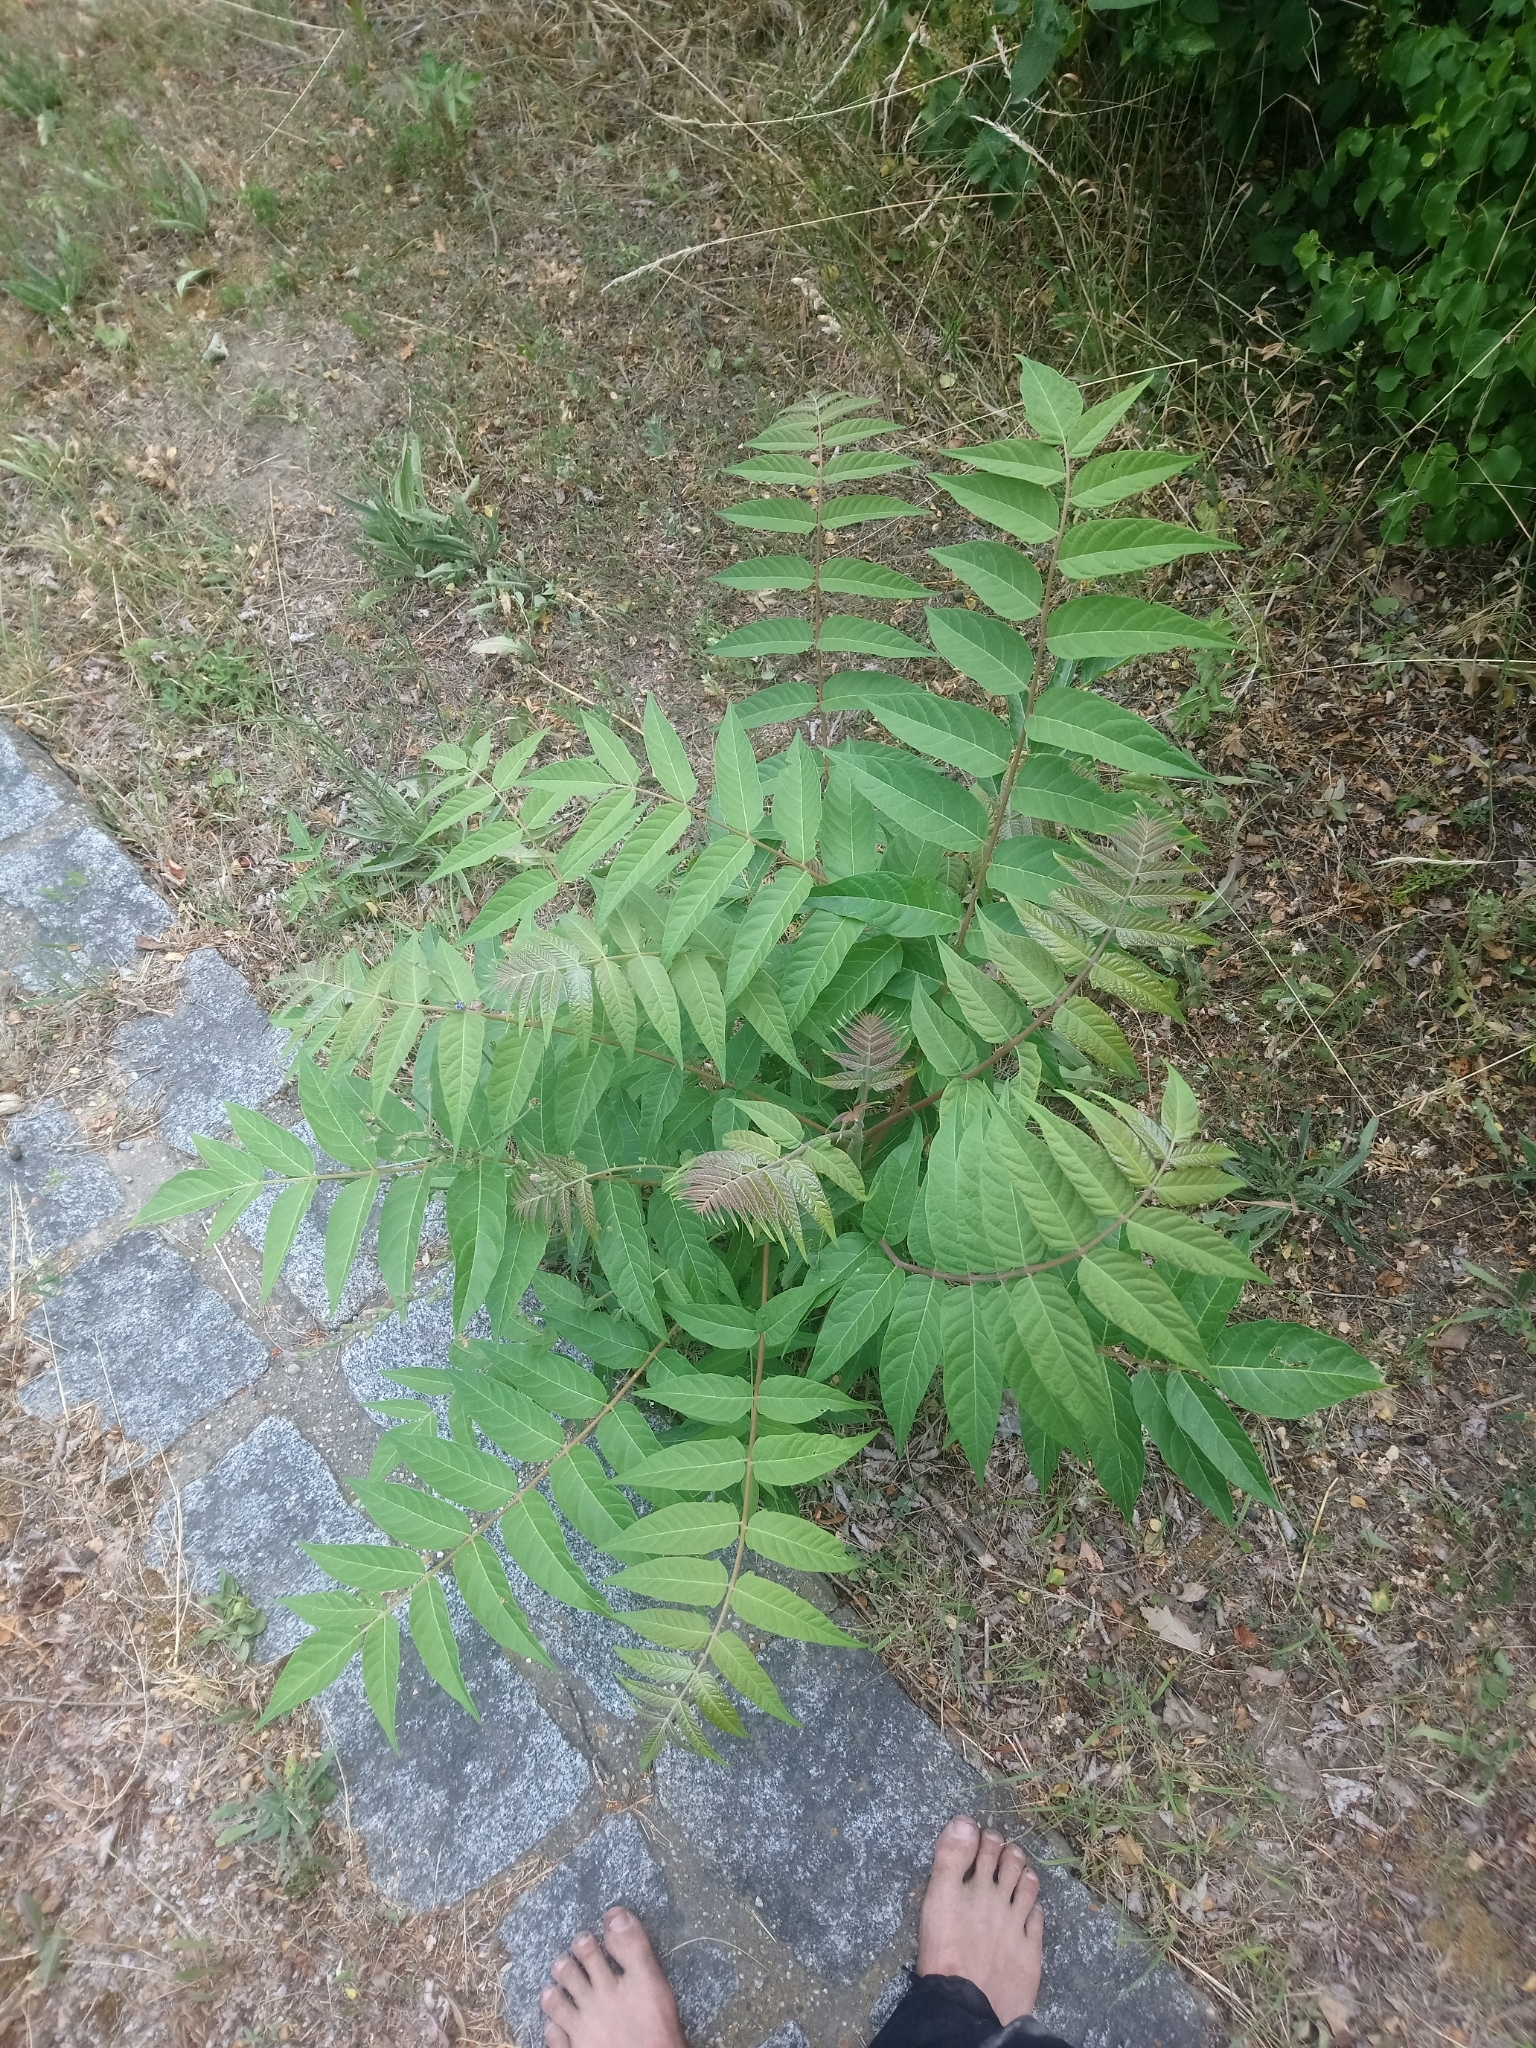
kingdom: Plantae
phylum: Tracheophyta
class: Magnoliopsida
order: Sapindales
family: Simaroubaceae
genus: Ailanthus
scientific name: Ailanthus altissima
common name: Tree-of-heaven
